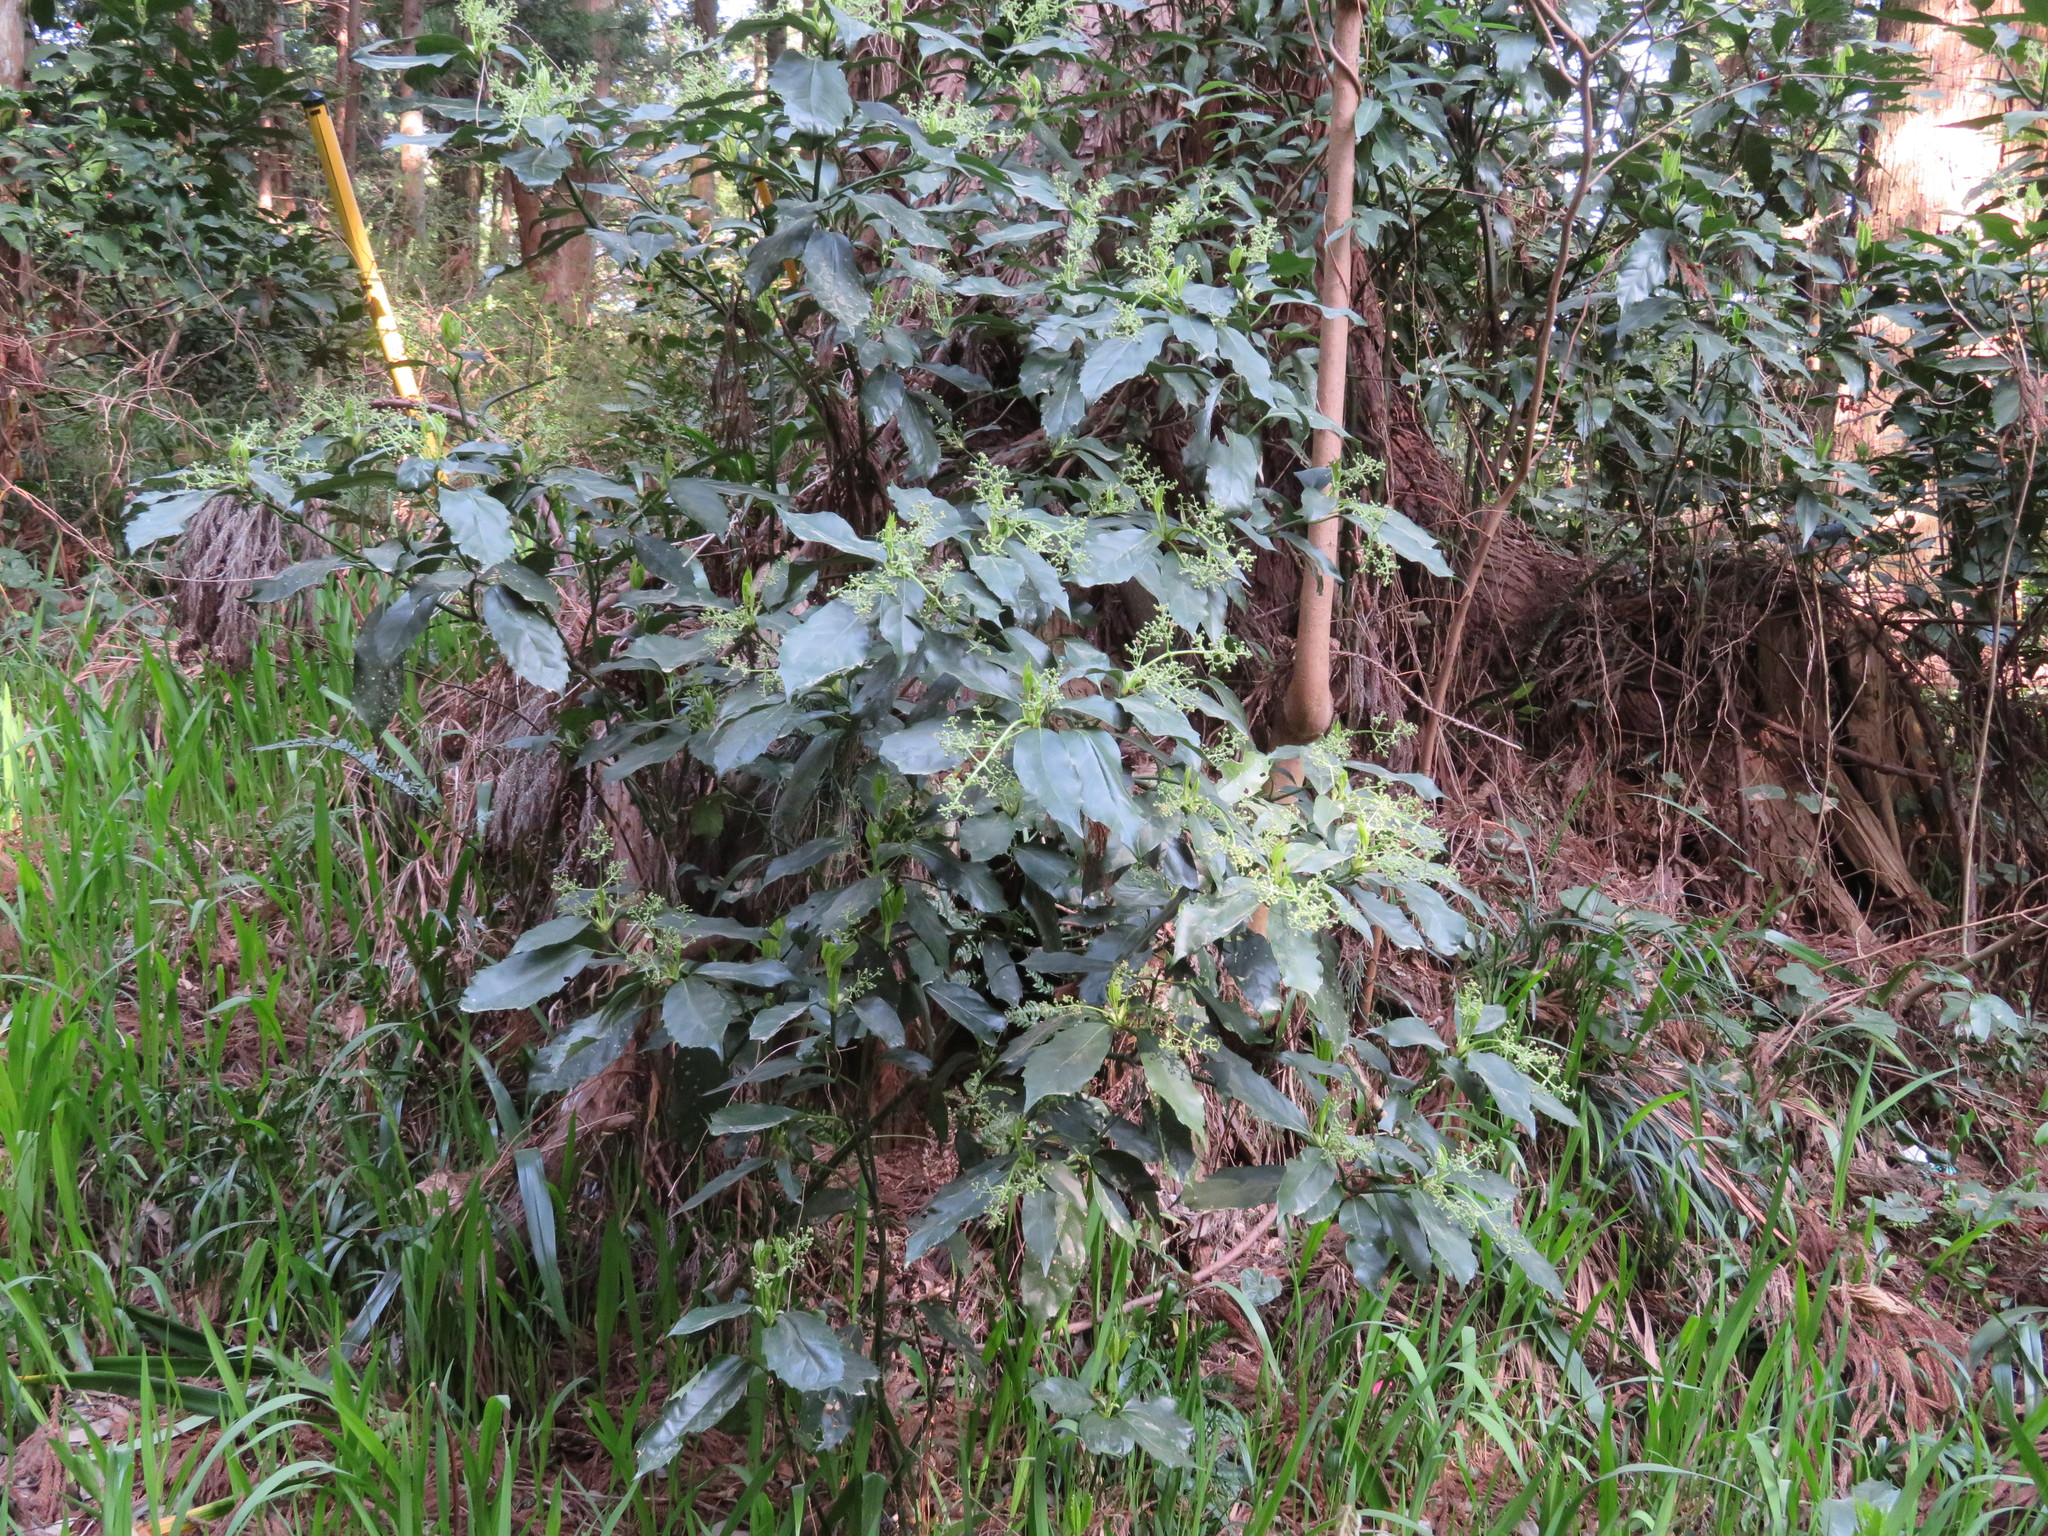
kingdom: Plantae
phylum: Tracheophyta
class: Magnoliopsida
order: Garryales
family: Garryaceae
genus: Aucuba
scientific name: Aucuba japonica
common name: Spotted-laurel
